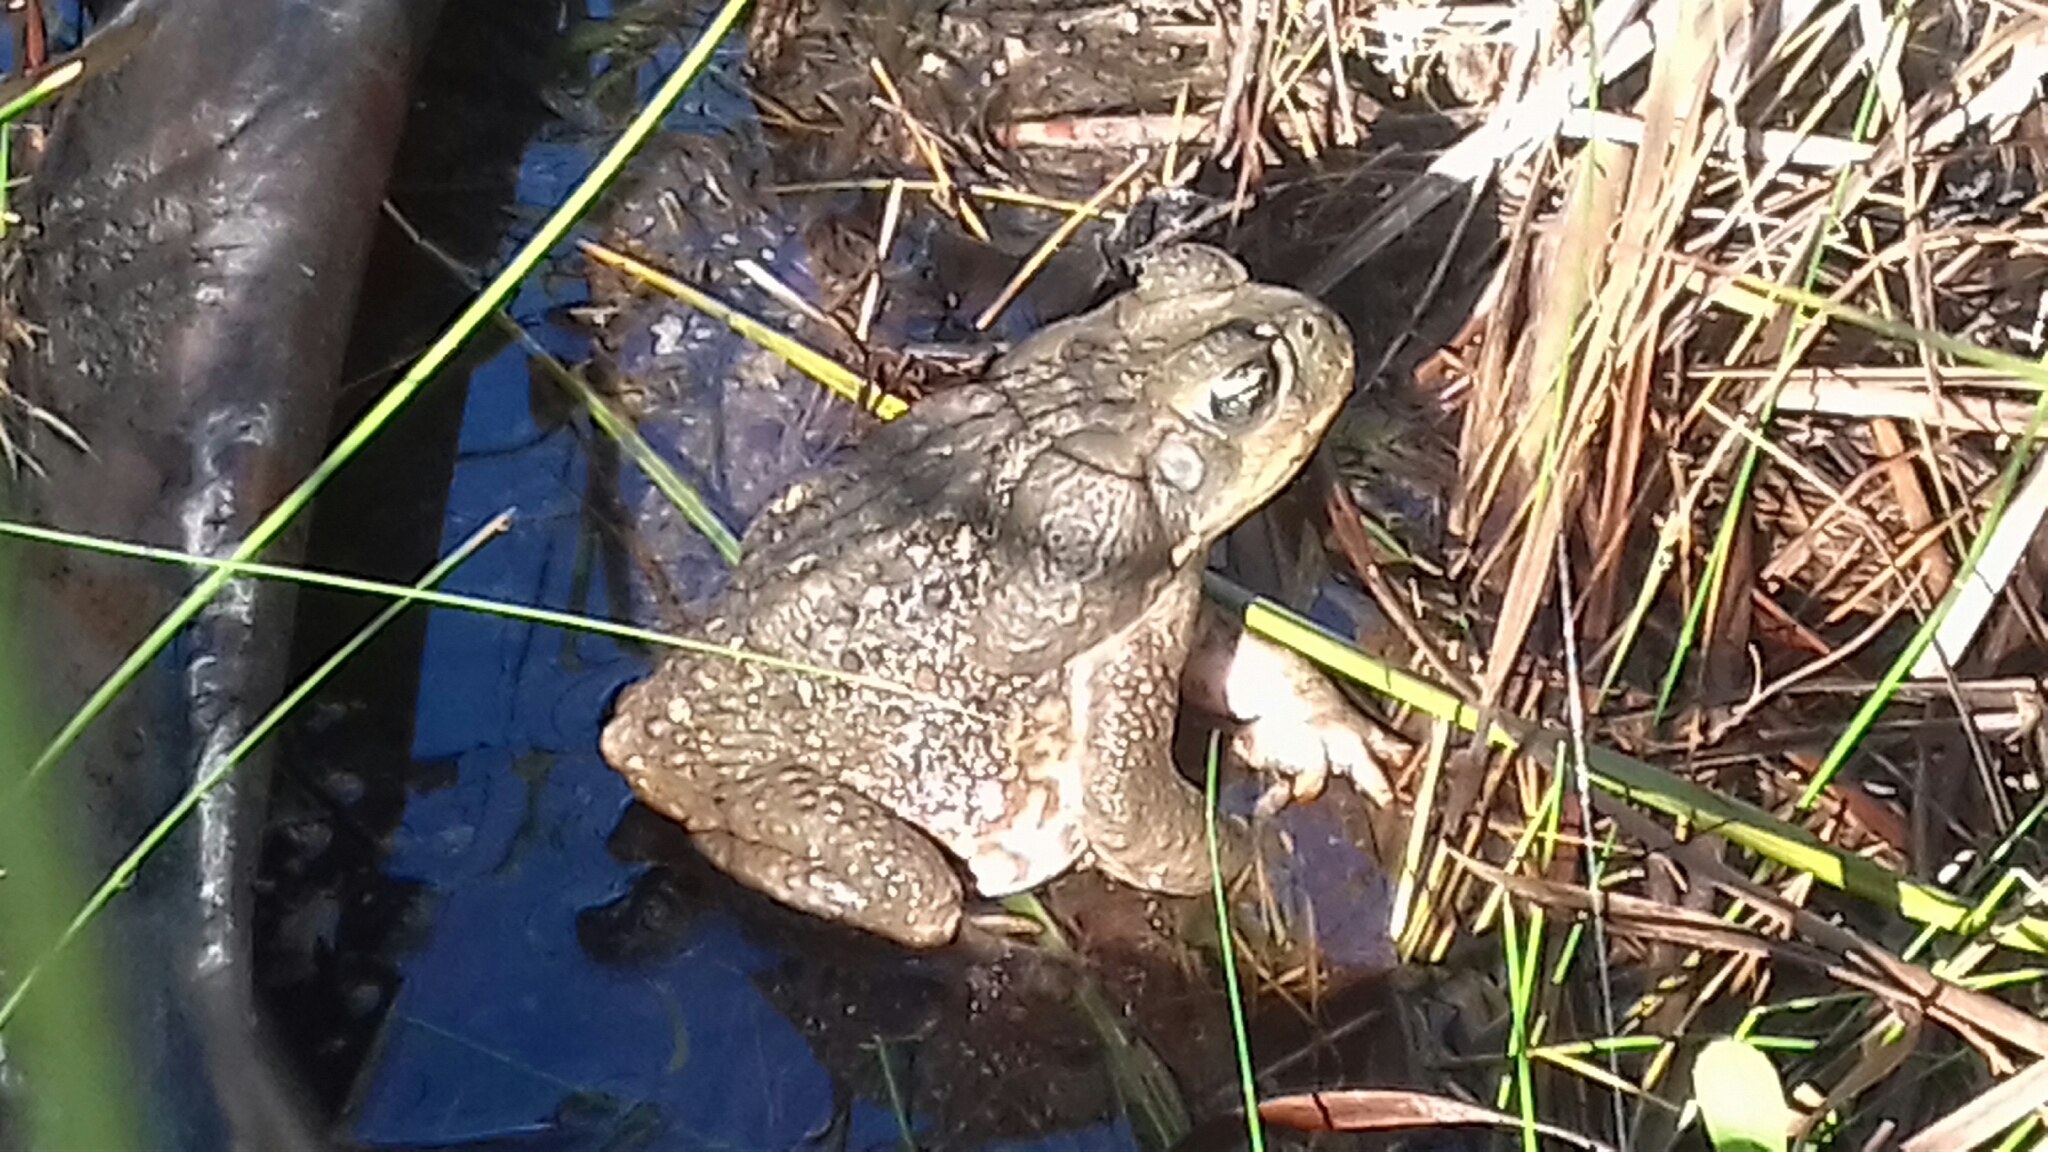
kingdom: Animalia
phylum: Chordata
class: Amphibia
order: Anura
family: Bufonidae
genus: Rhinella
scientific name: Rhinella horribilis
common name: Mesoamerican cane toad
